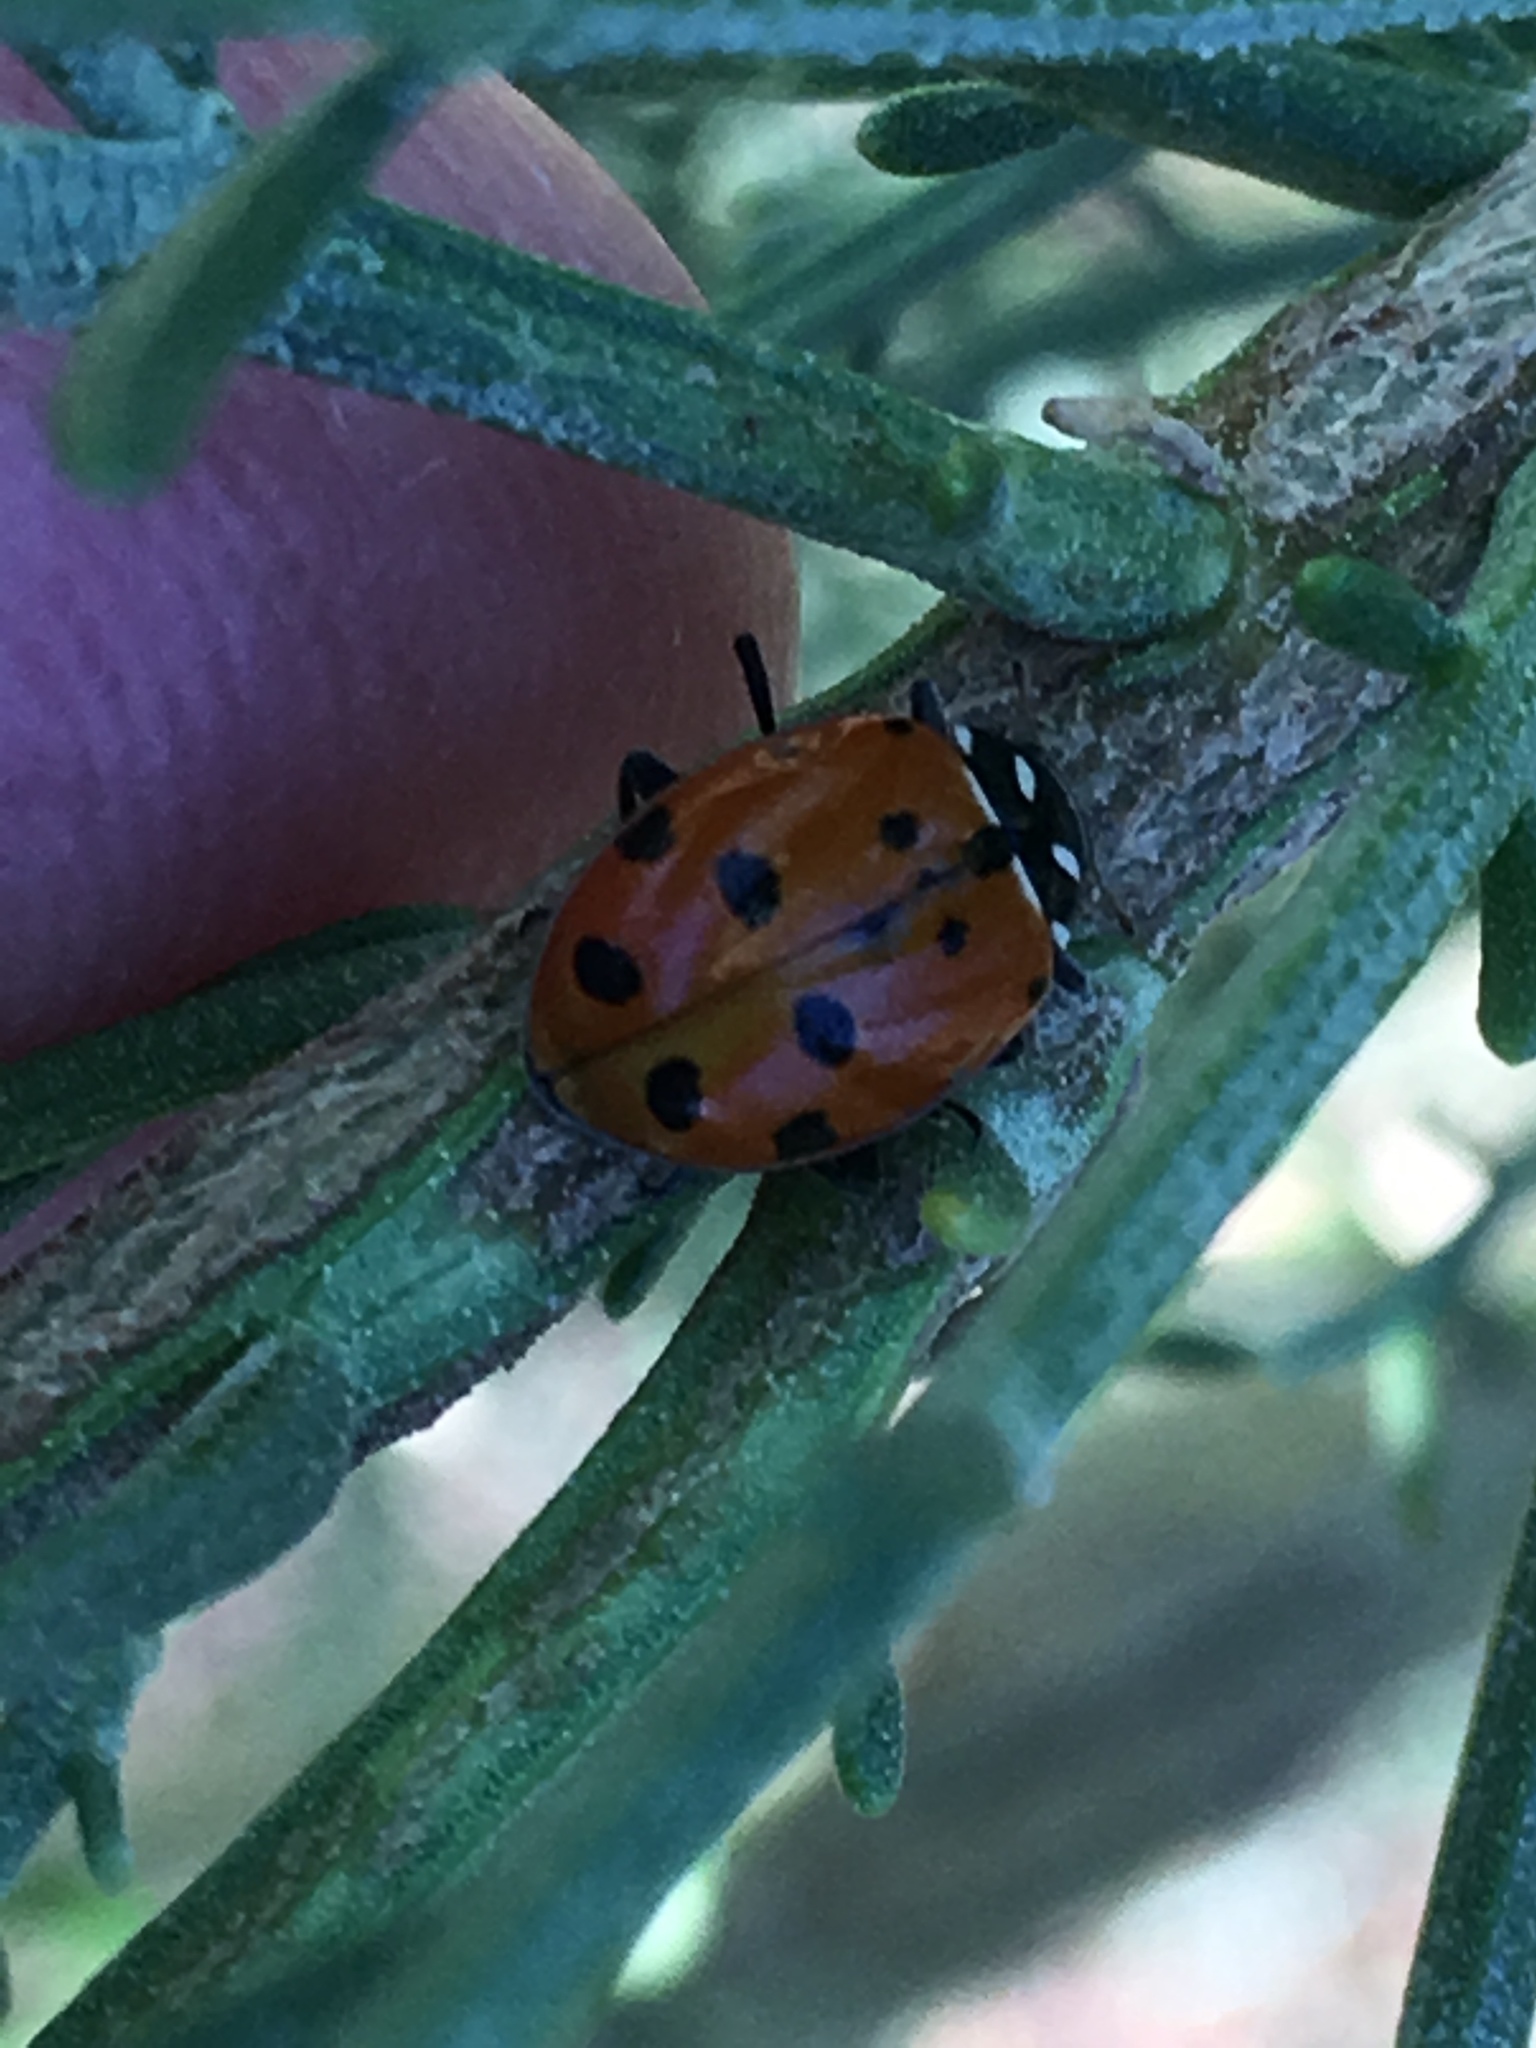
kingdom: Animalia
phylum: Arthropoda
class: Insecta
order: Coleoptera
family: Coccinellidae
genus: Hippodamia
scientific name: Hippodamia convergens
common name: Convergent lady beetle
